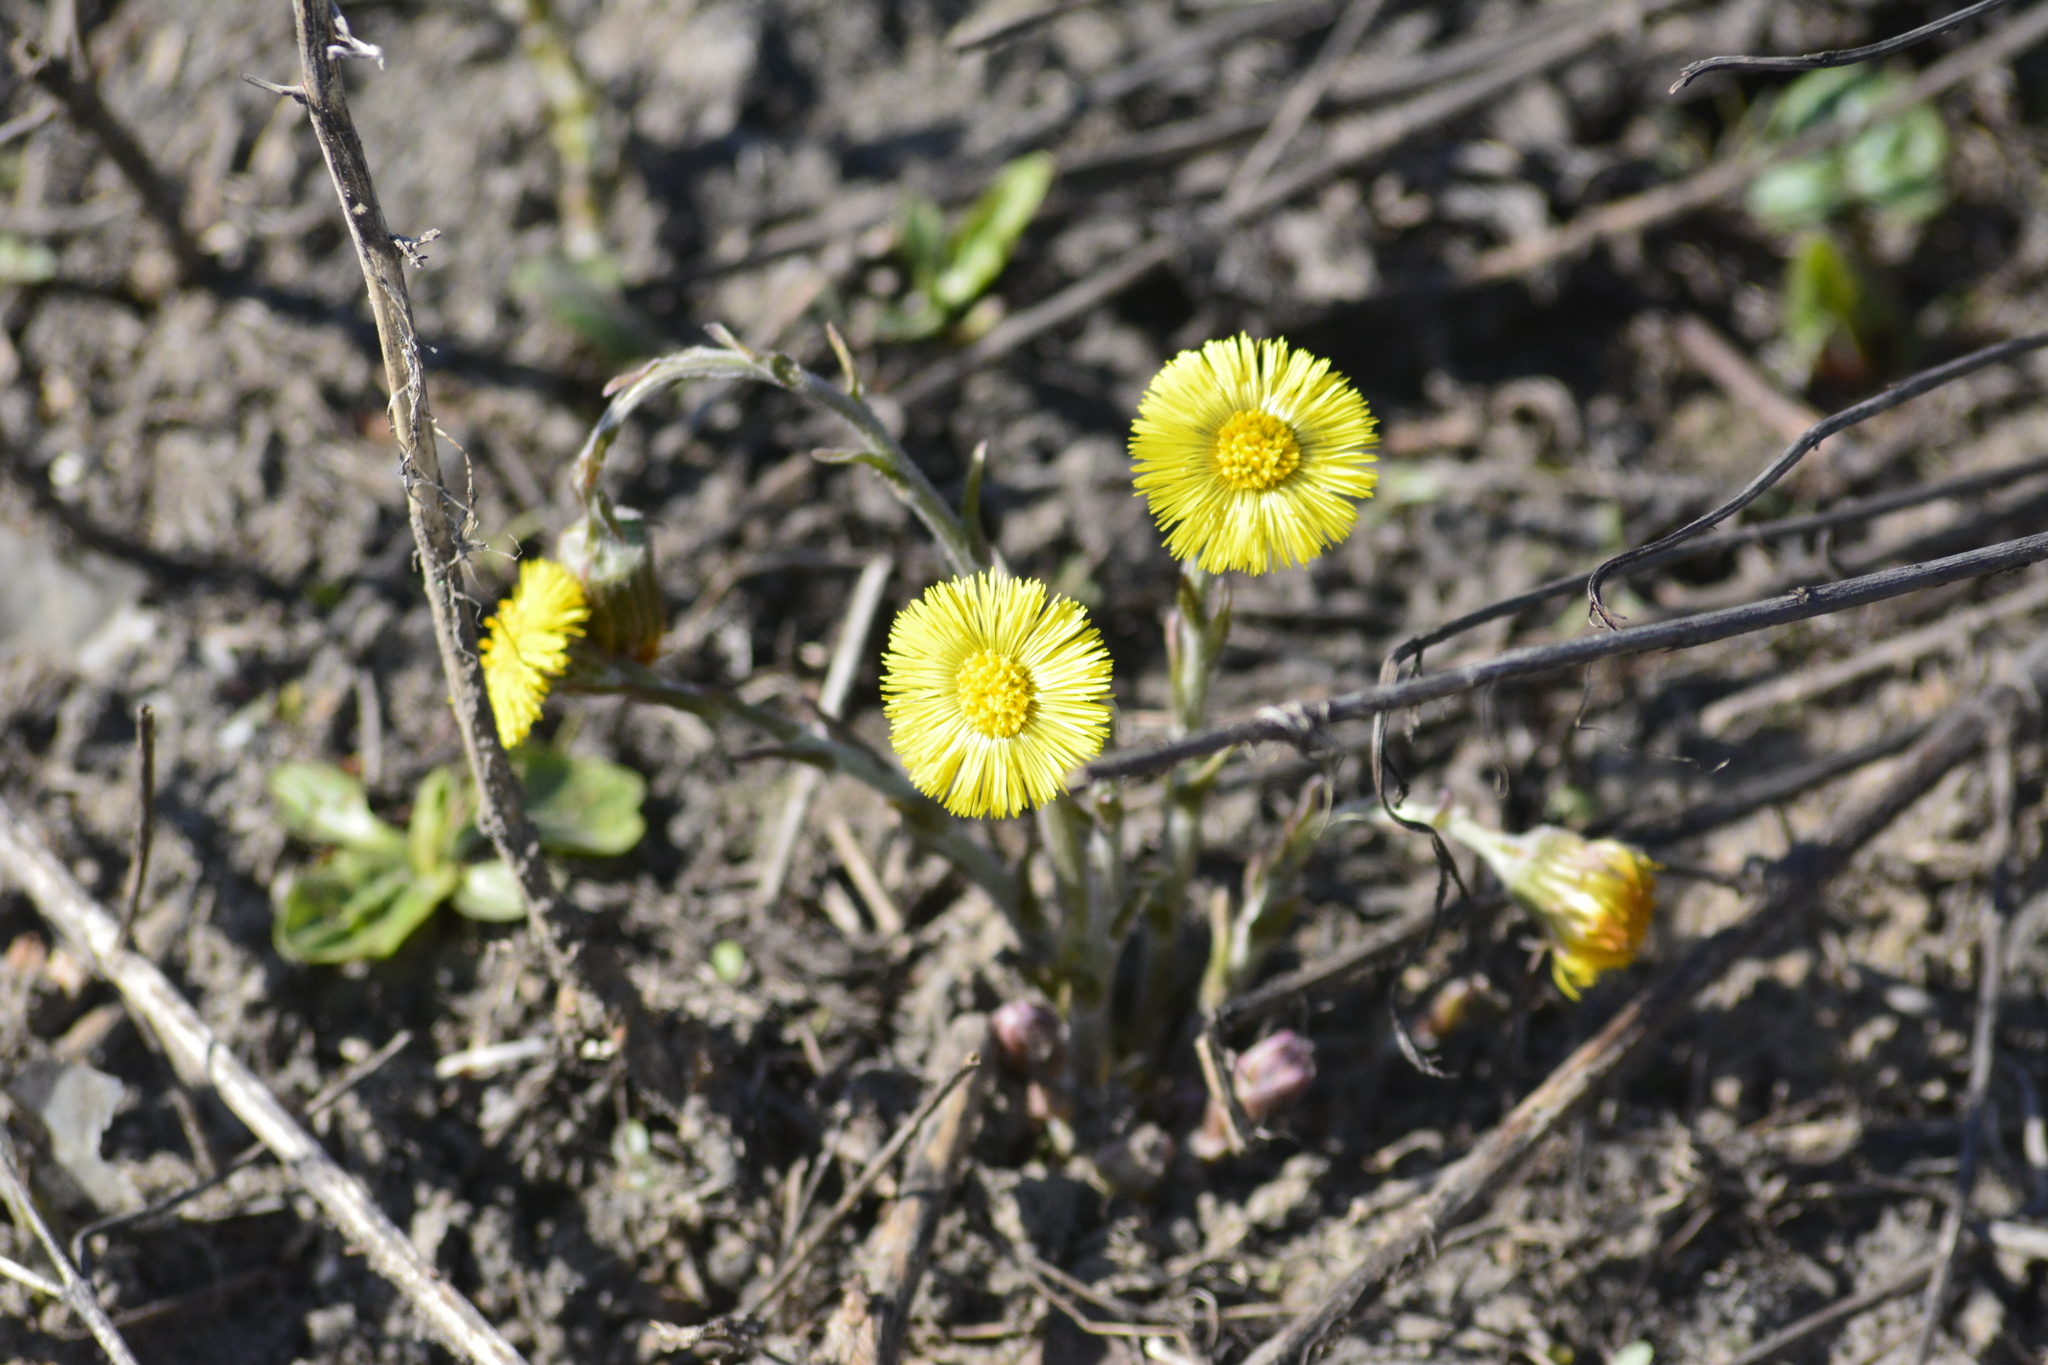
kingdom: Plantae
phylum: Tracheophyta
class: Magnoliopsida
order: Asterales
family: Asteraceae
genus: Tussilago
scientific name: Tussilago farfara
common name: Coltsfoot
